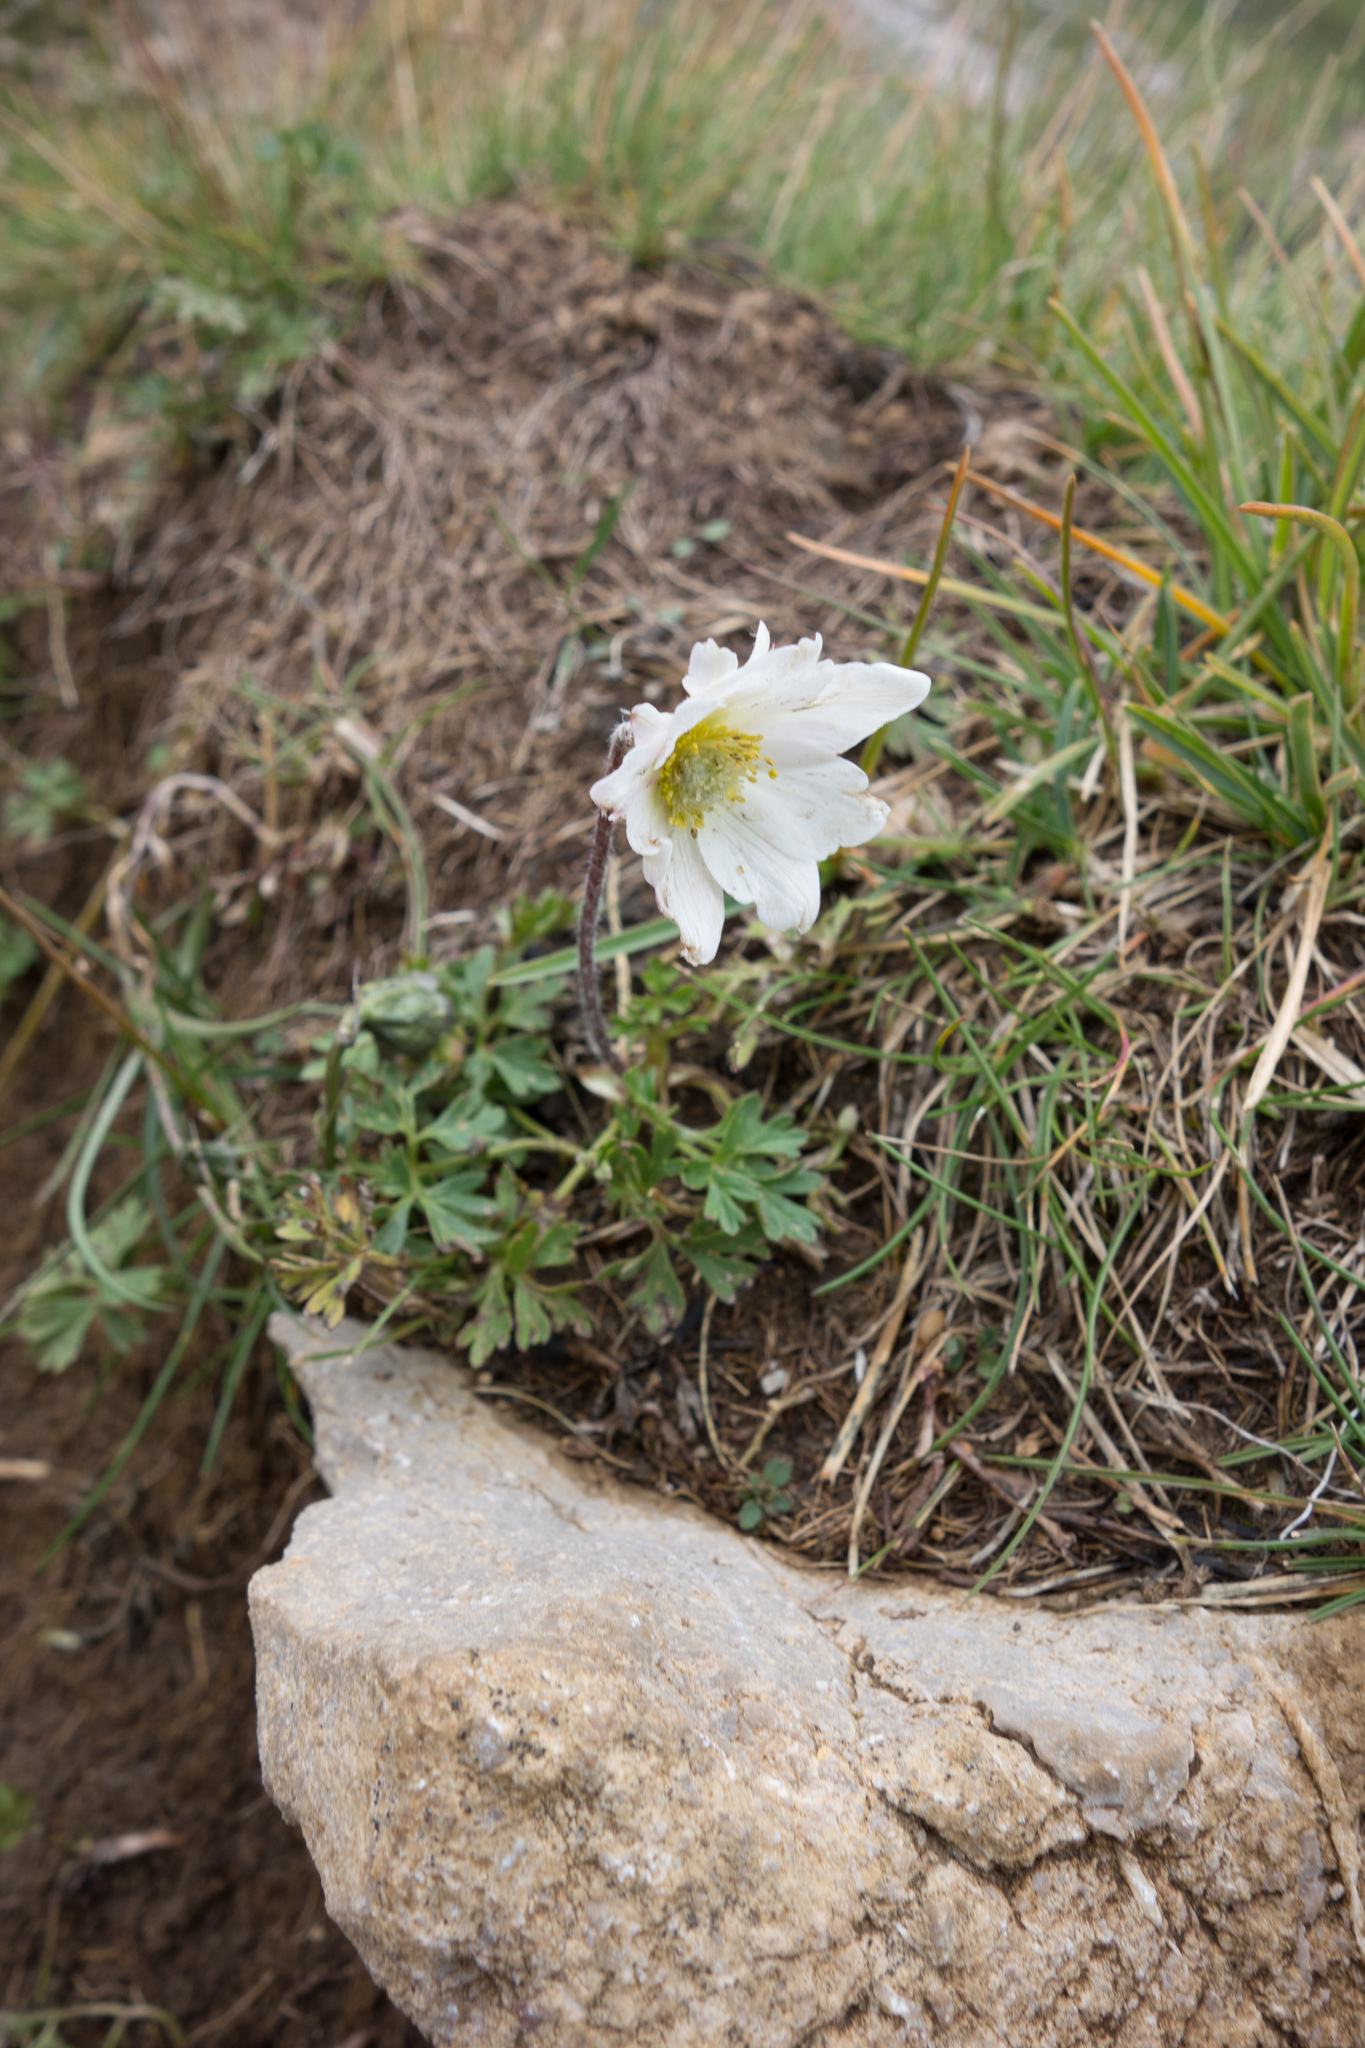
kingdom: Plantae
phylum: Tracheophyta
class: Magnoliopsida
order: Ranunculales
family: Ranunculaceae
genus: Anemone
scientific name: Anemone baldensis
